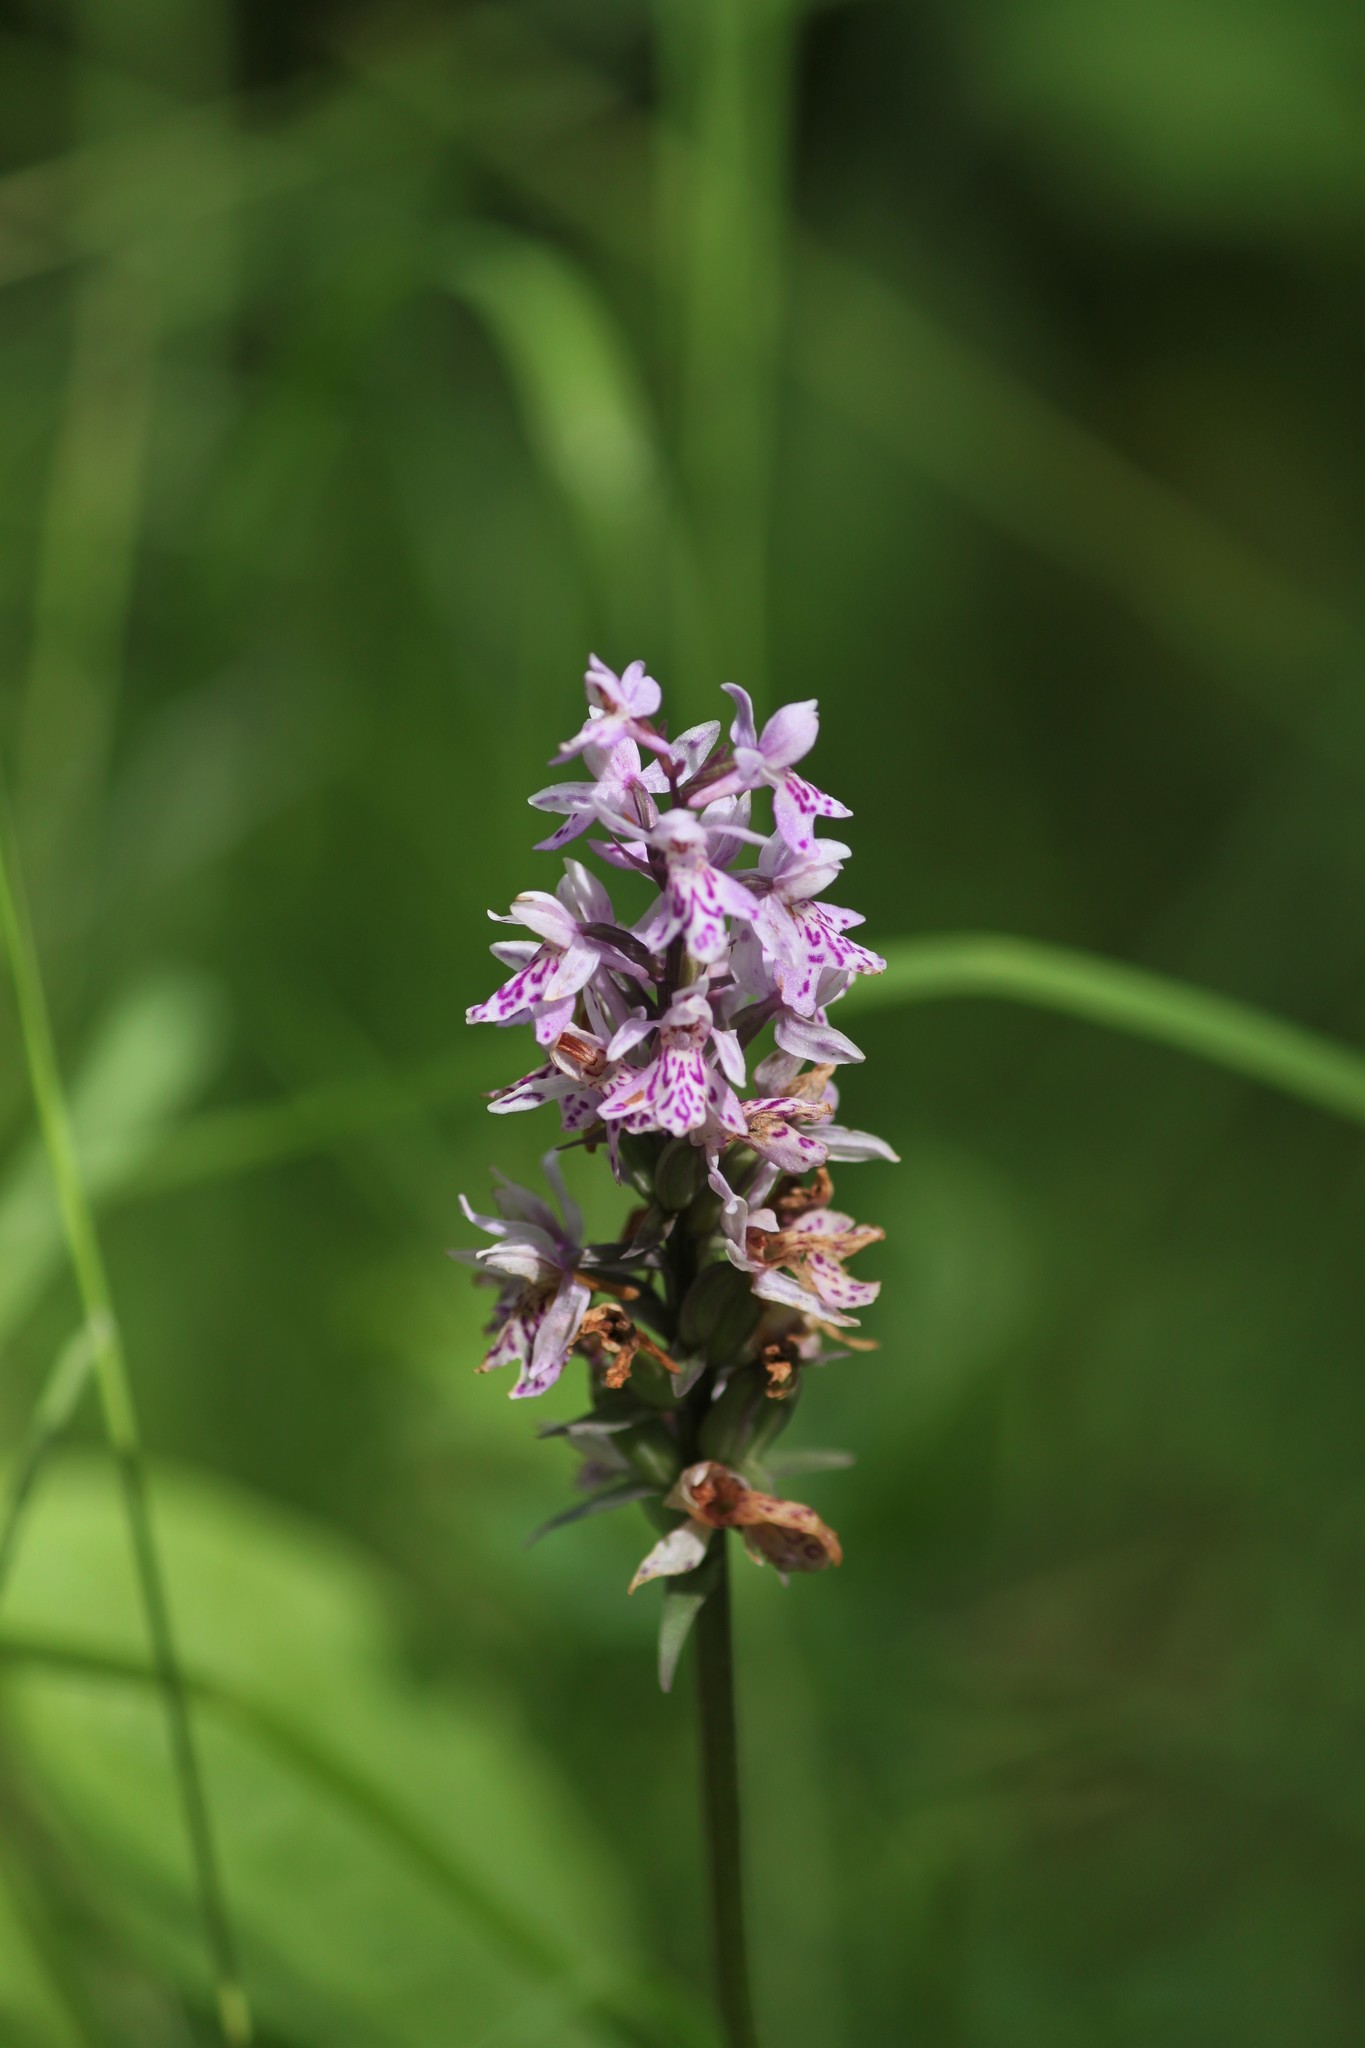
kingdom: Plantae
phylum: Tracheophyta
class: Liliopsida
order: Asparagales
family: Orchidaceae
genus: Dactylorhiza
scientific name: Dactylorhiza maculata
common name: Heath spotted-orchid
